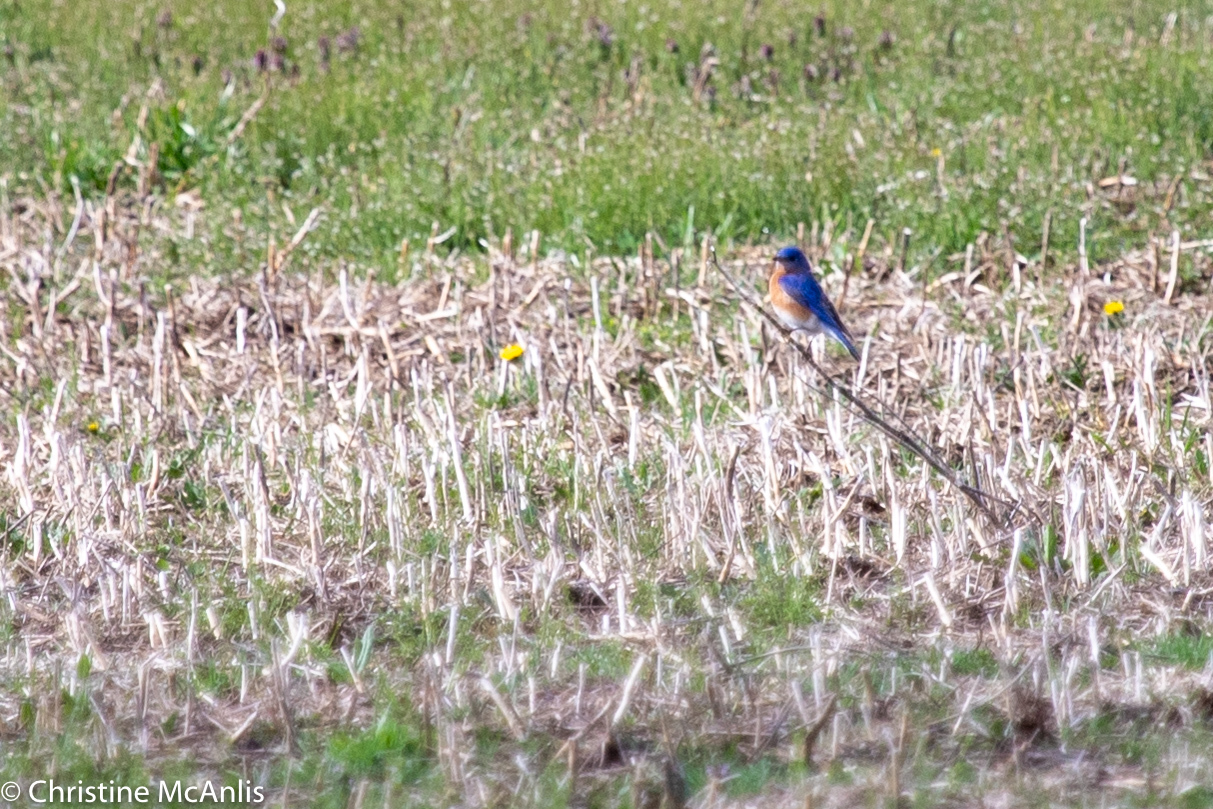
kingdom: Animalia
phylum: Chordata
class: Aves
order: Passeriformes
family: Turdidae
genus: Sialia
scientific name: Sialia sialis
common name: Eastern bluebird
